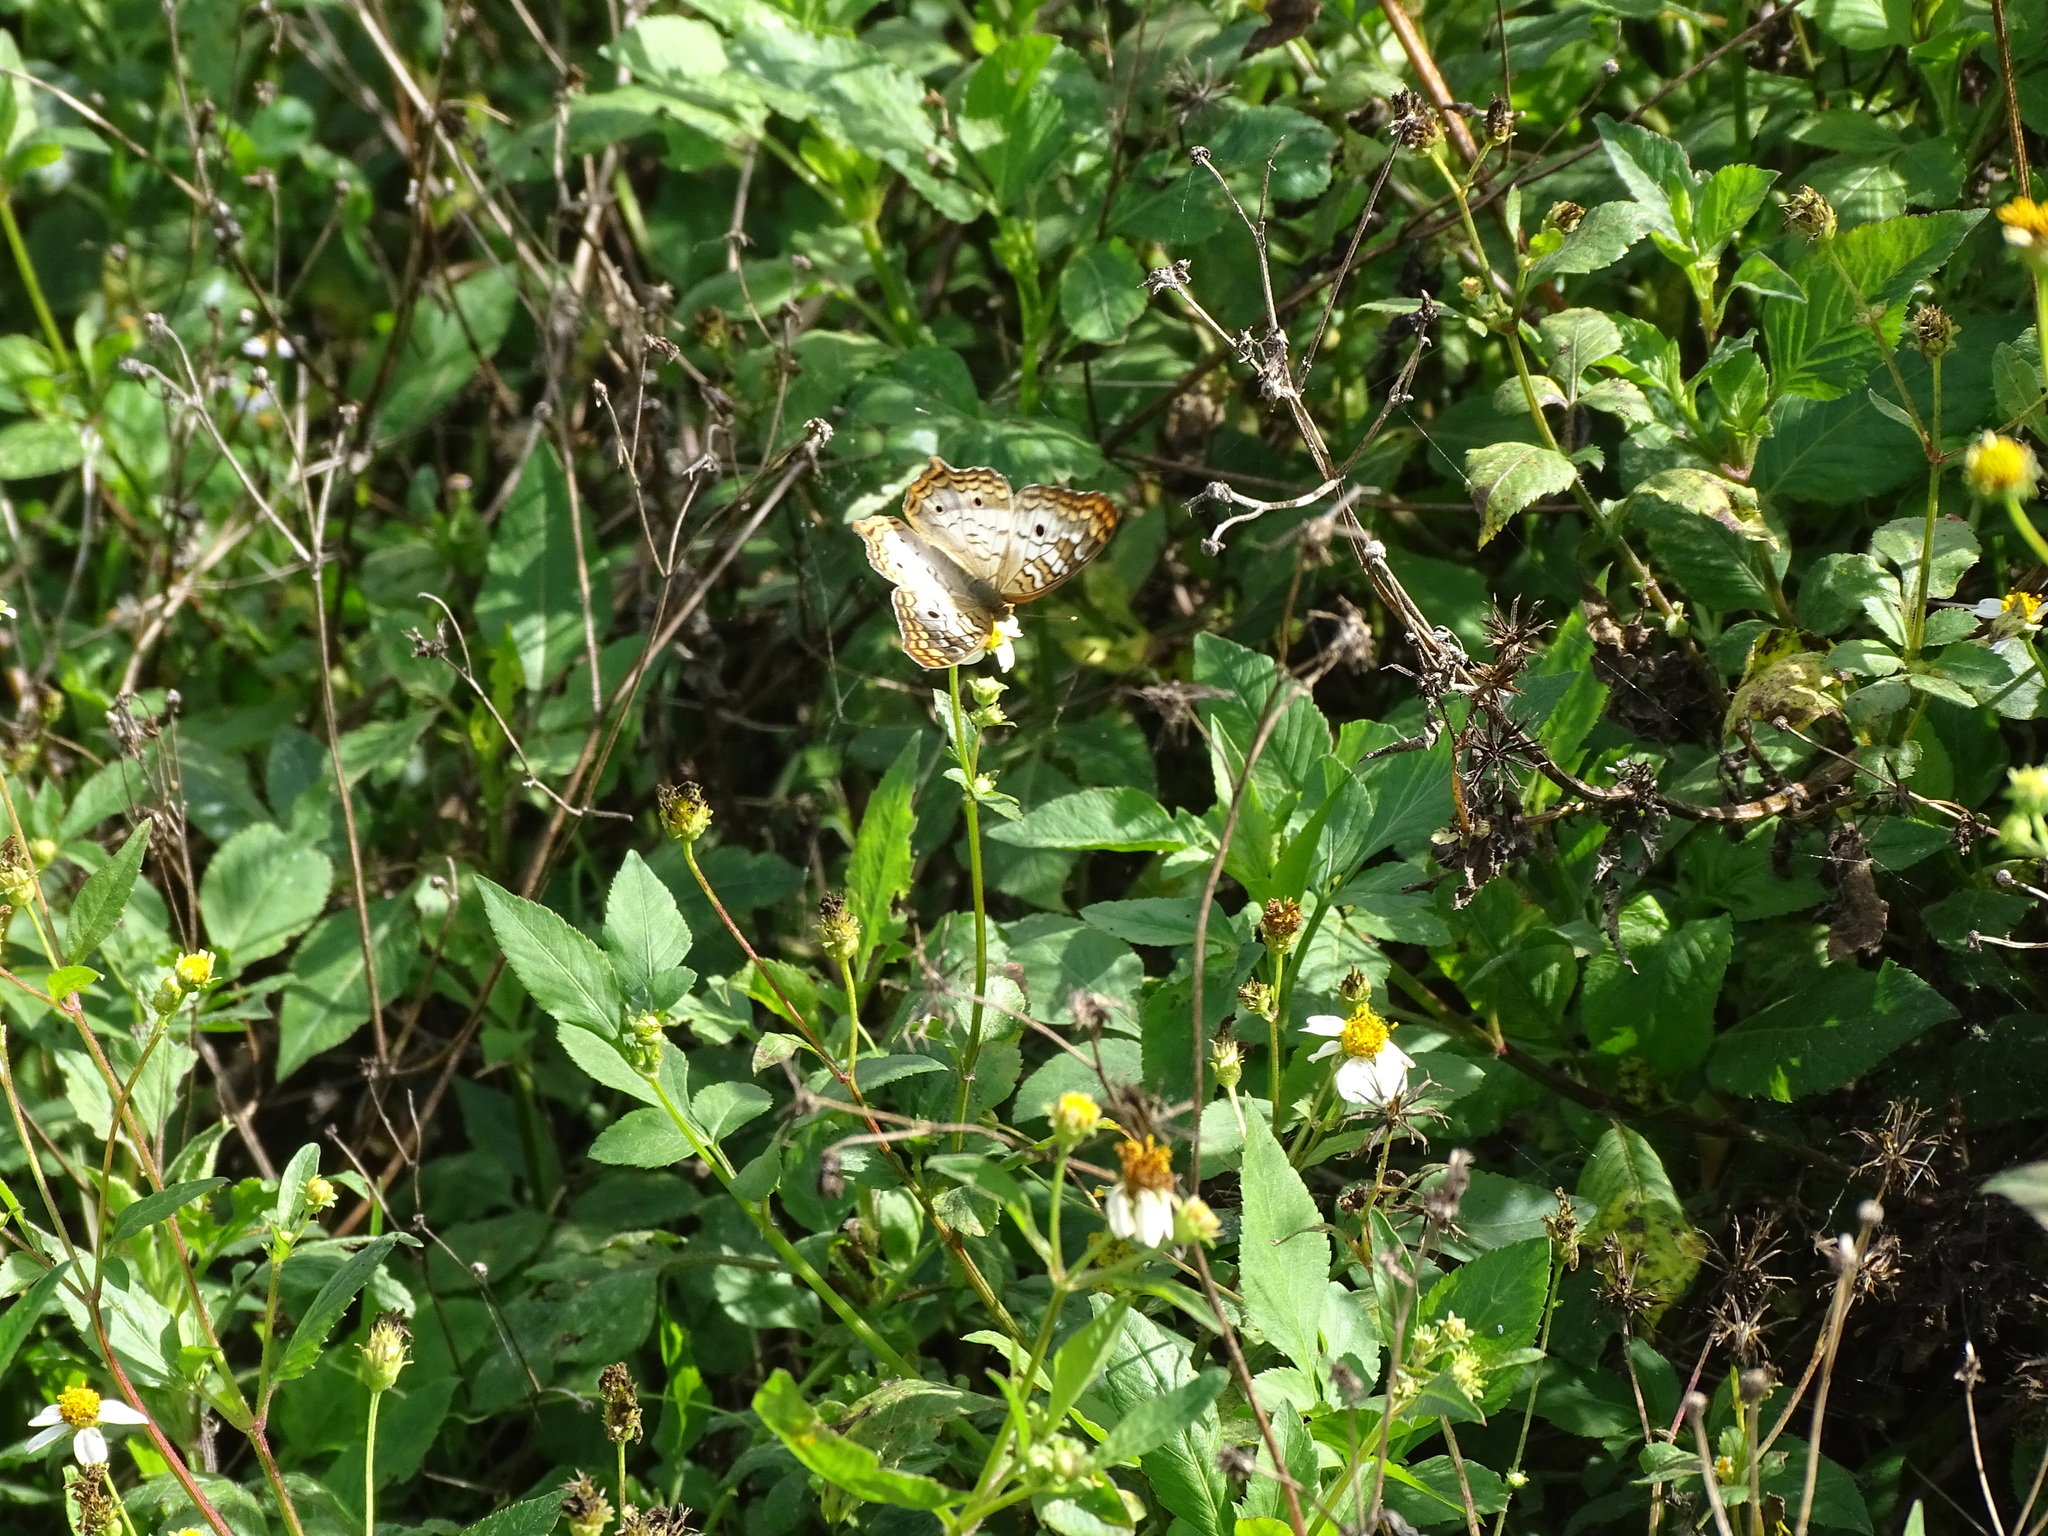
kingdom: Animalia
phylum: Arthropoda
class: Insecta
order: Lepidoptera
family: Nymphalidae
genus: Anartia
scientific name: Anartia jatrophae
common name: White peacock
